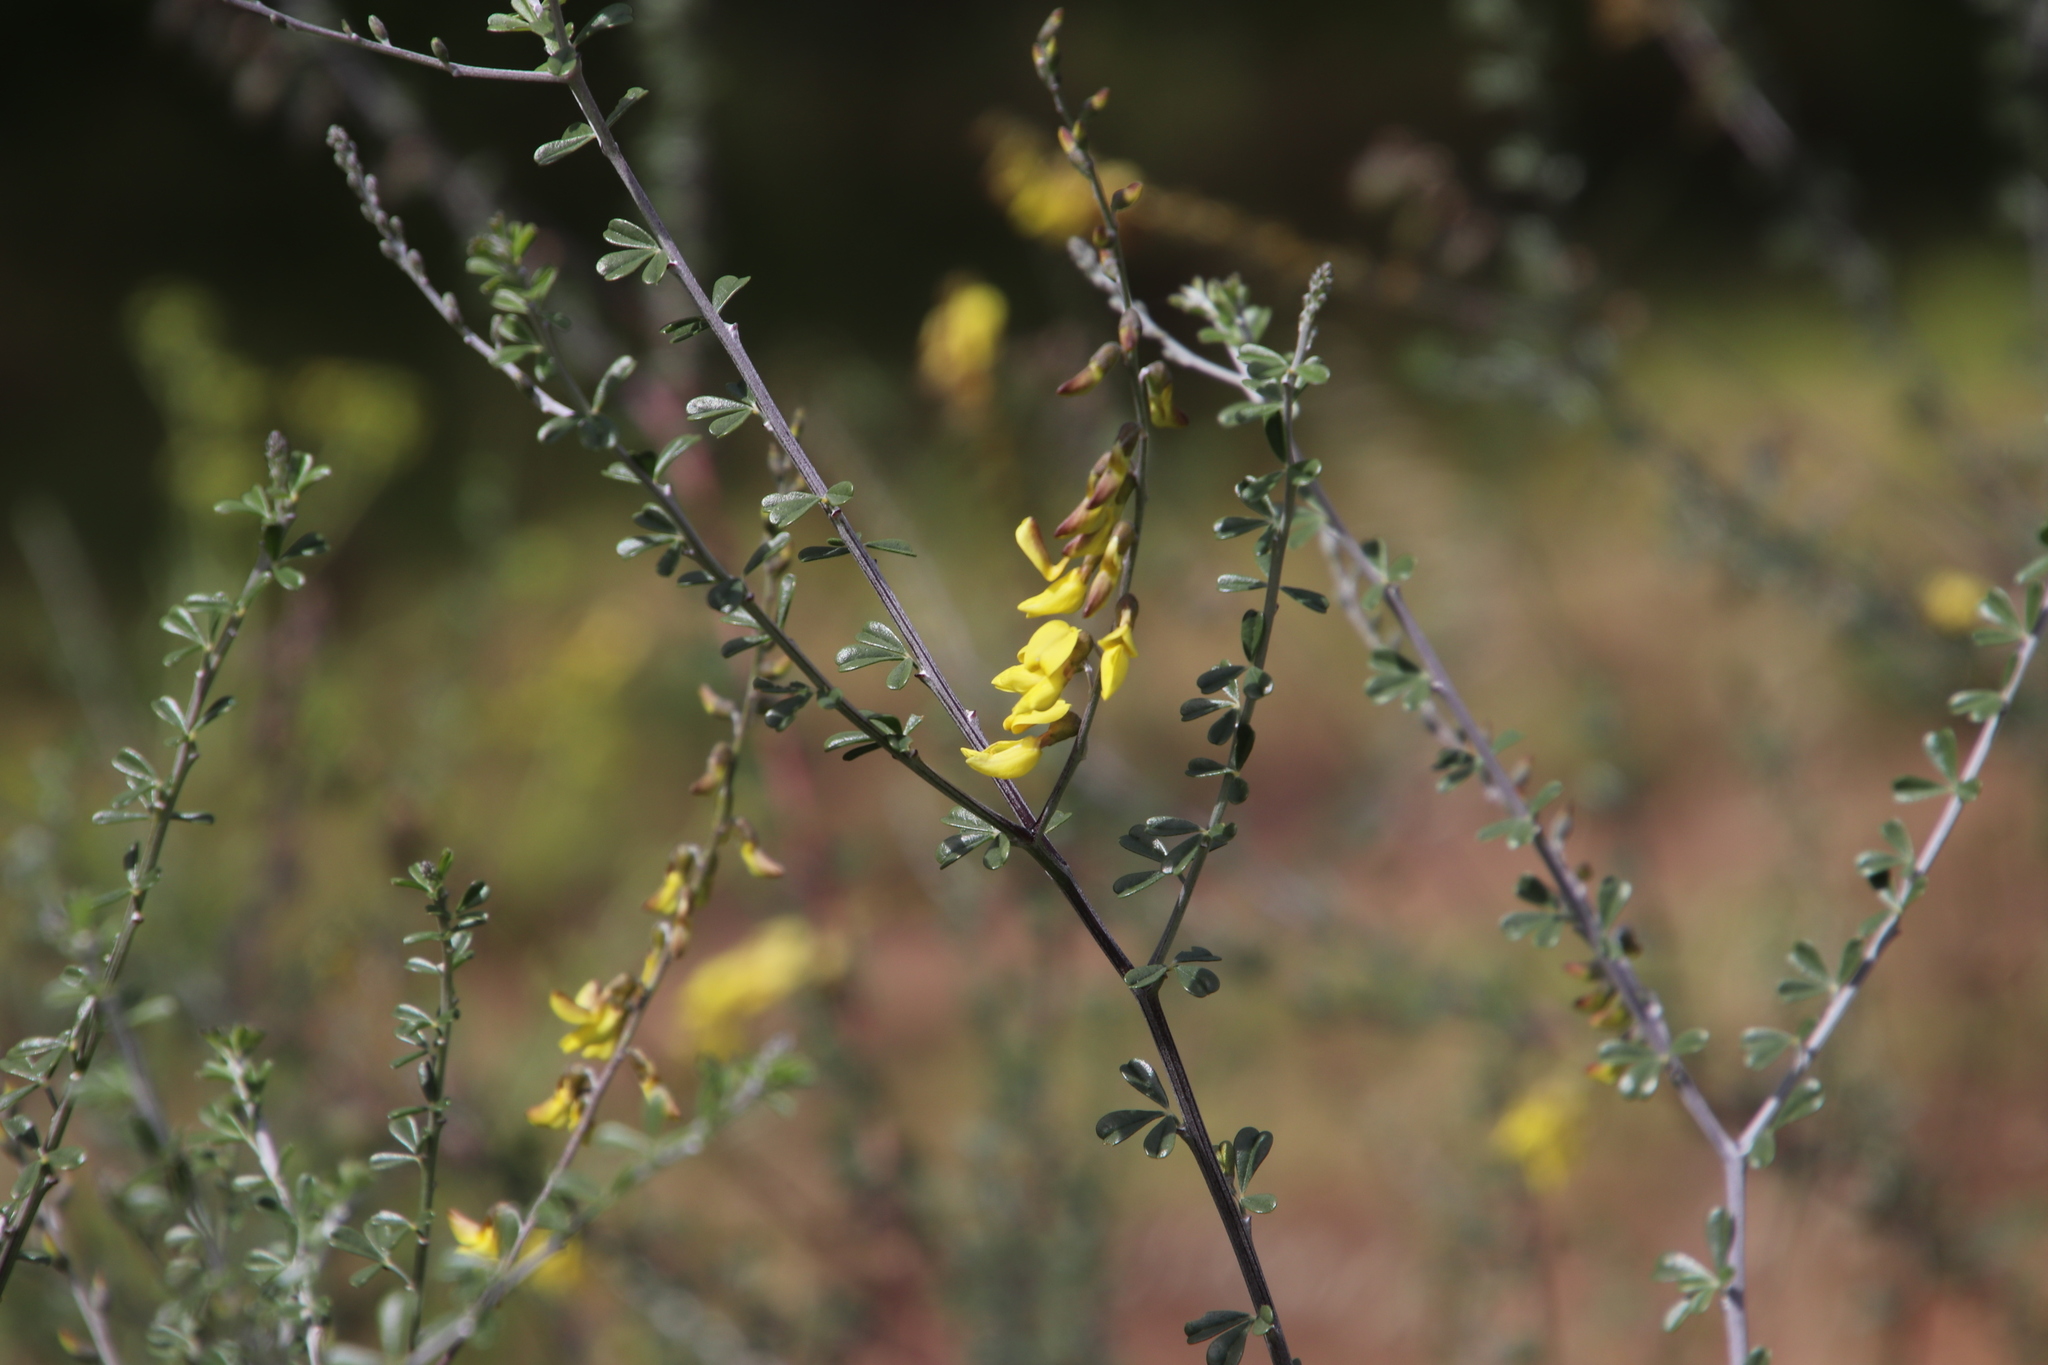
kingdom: Plantae
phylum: Tracheophyta
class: Magnoliopsida
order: Fabales
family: Fabaceae
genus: Wiborgia
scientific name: Wiborgia obcordata
